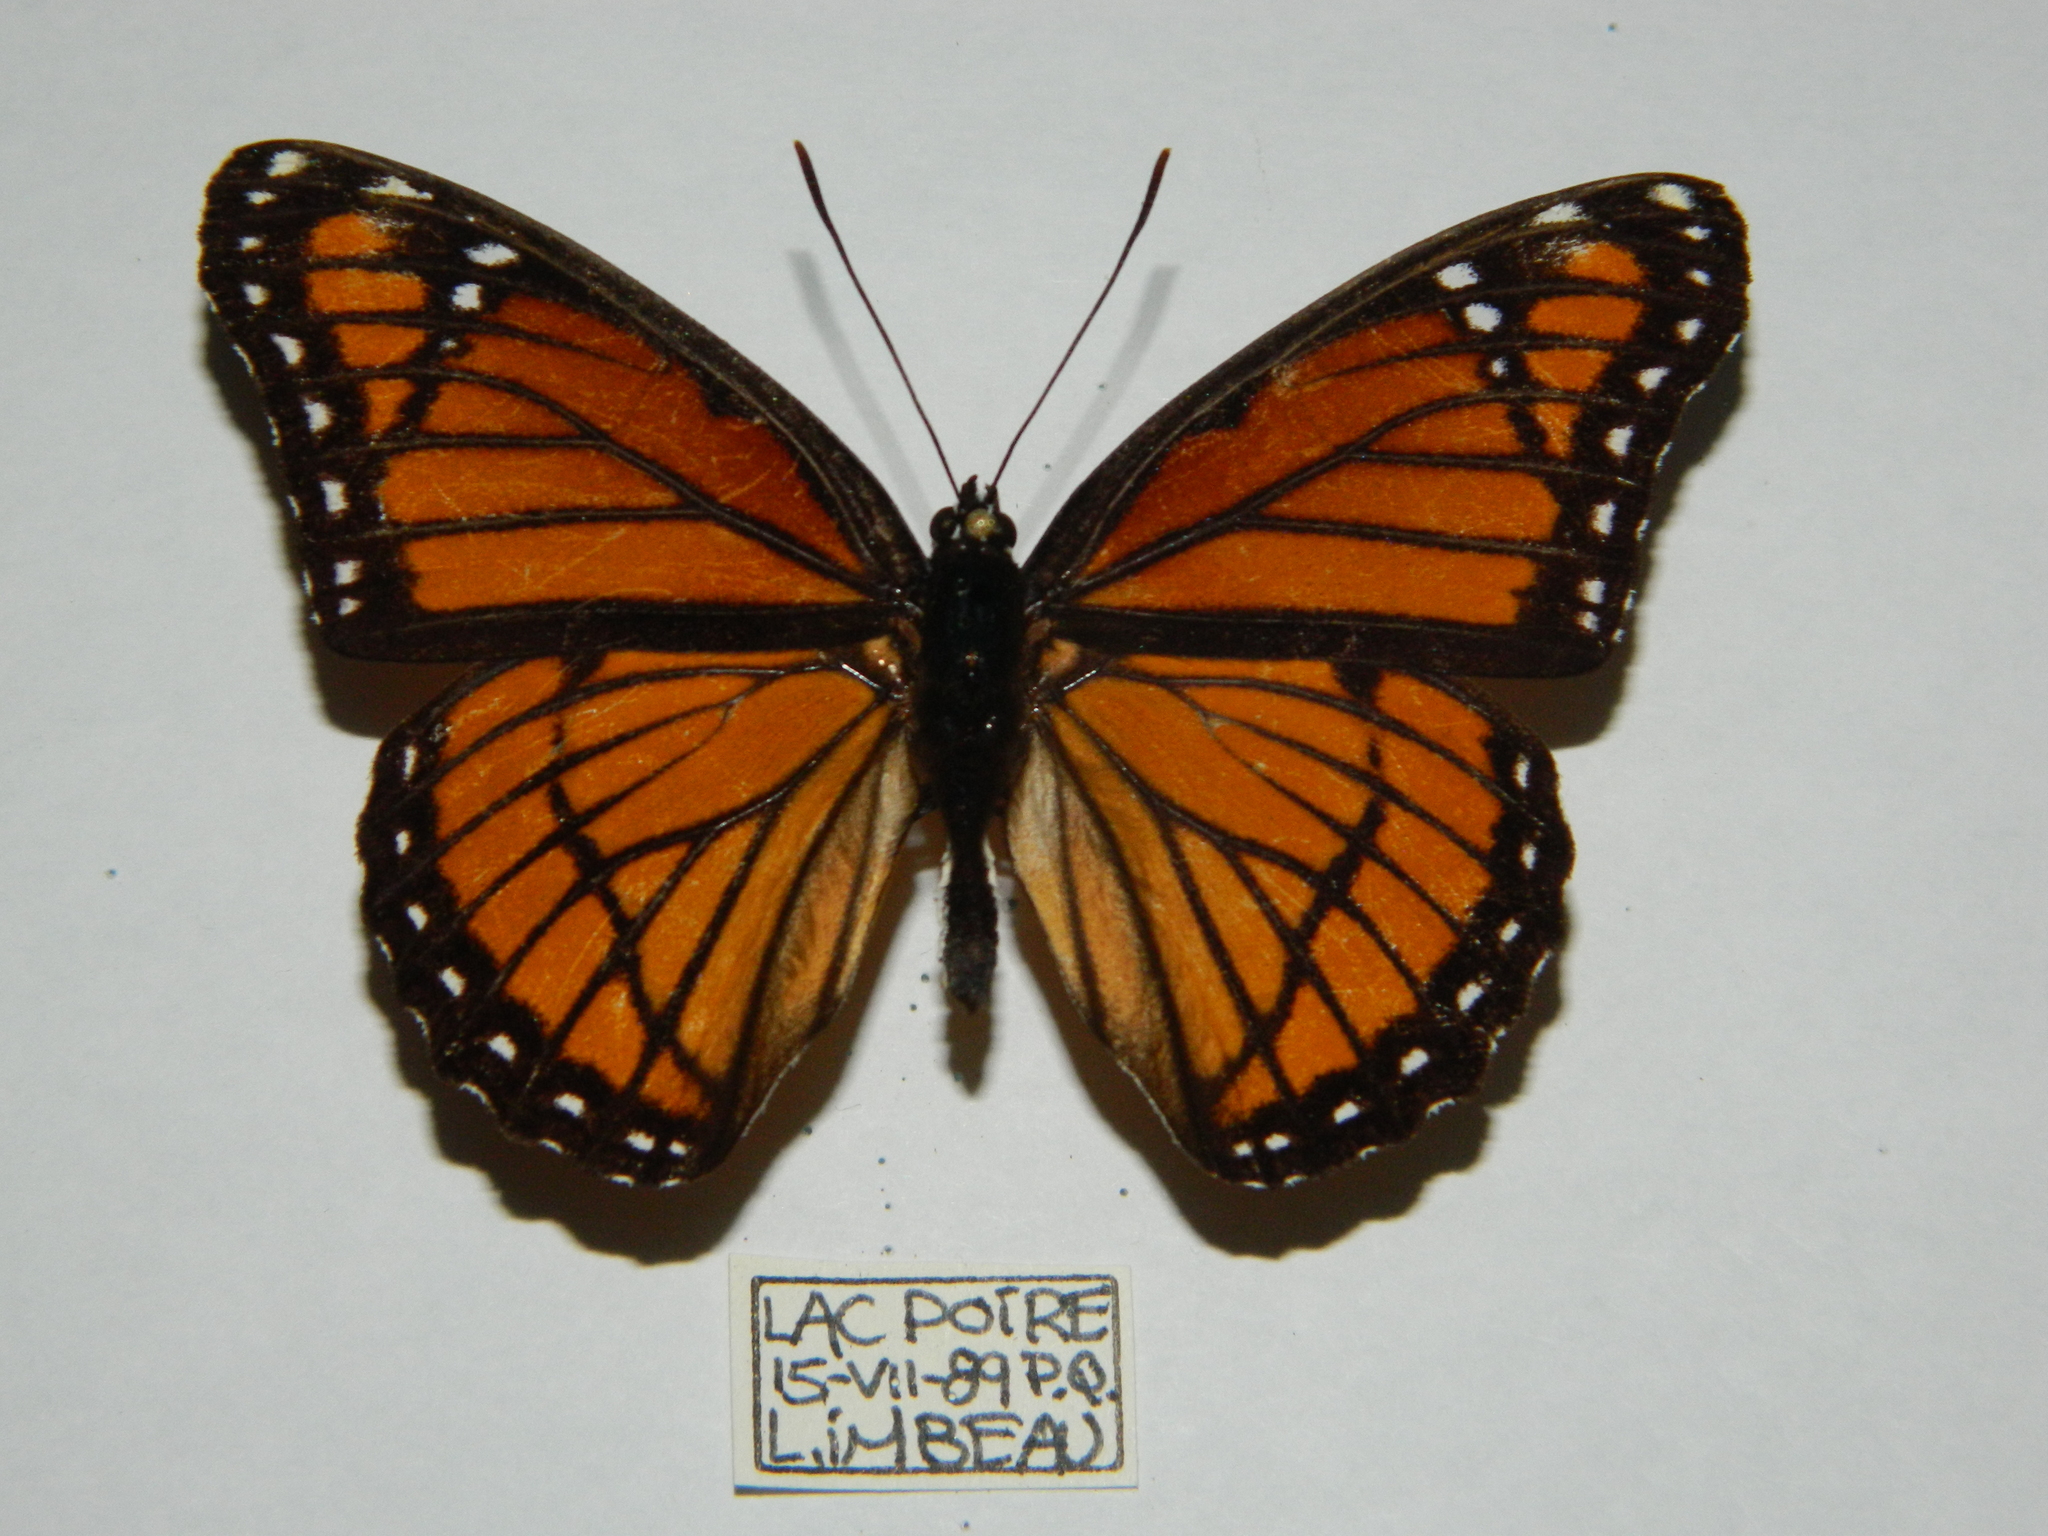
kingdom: Animalia
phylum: Arthropoda
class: Insecta
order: Lepidoptera
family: Nymphalidae
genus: Limenitis
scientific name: Limenitis archippus
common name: Viceroy
